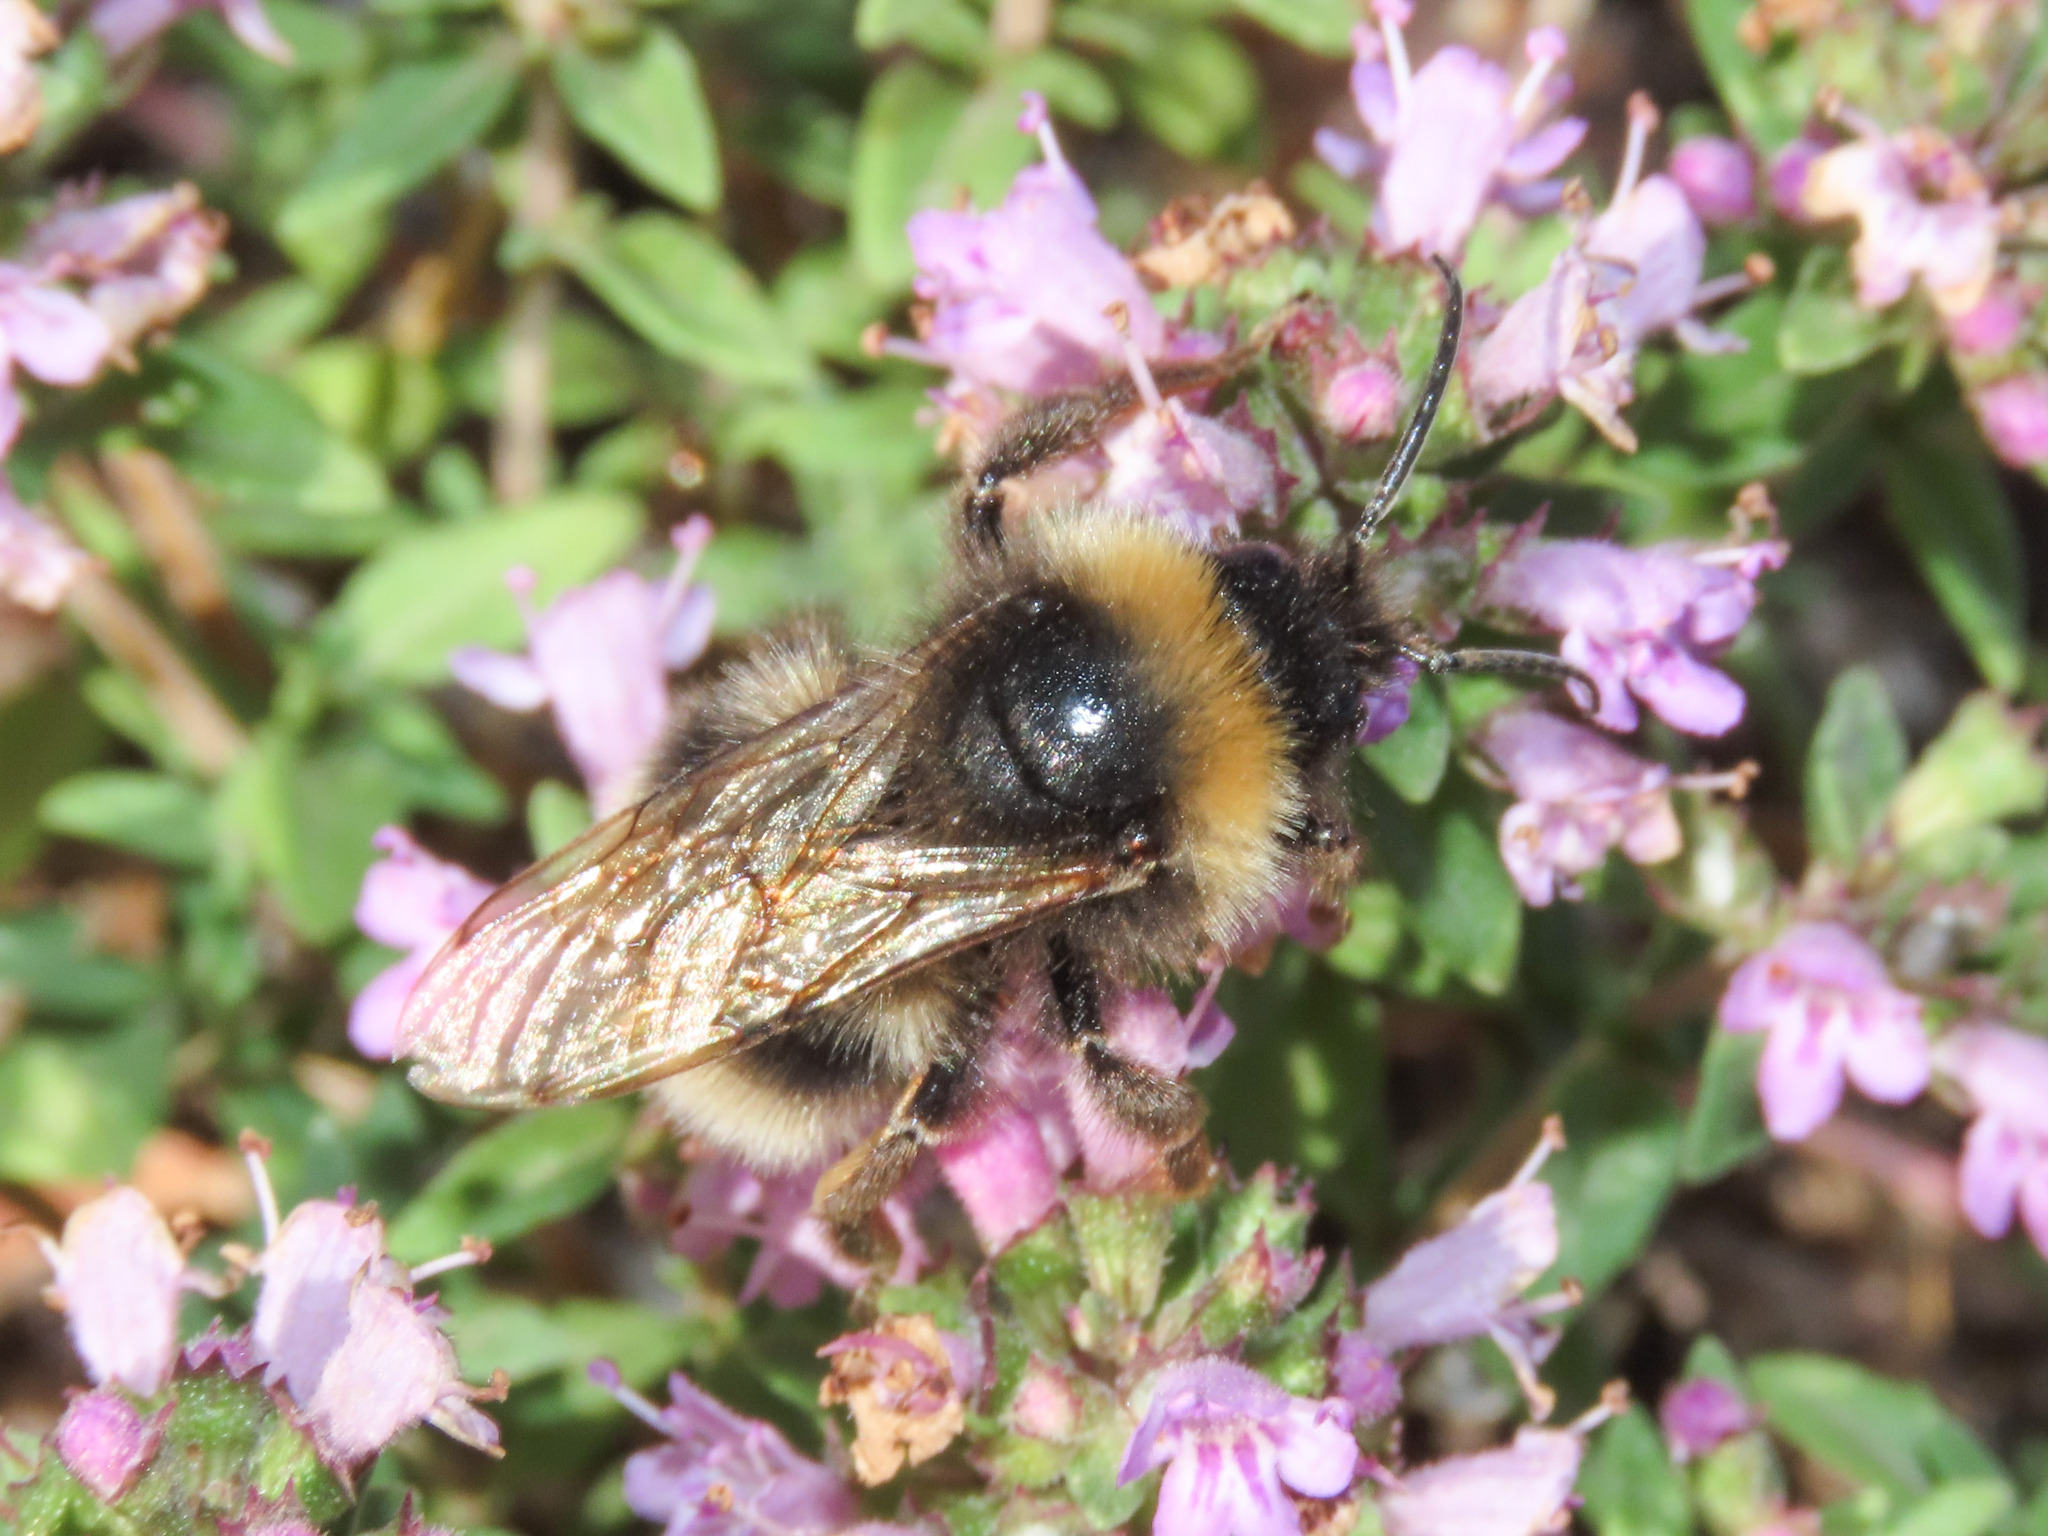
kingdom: Animalia
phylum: Arthropoda
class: Insecta
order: Hymenoptera
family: Apidae
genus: Bombus
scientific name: Bombus vestalis
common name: Vestal cuckoo bee
